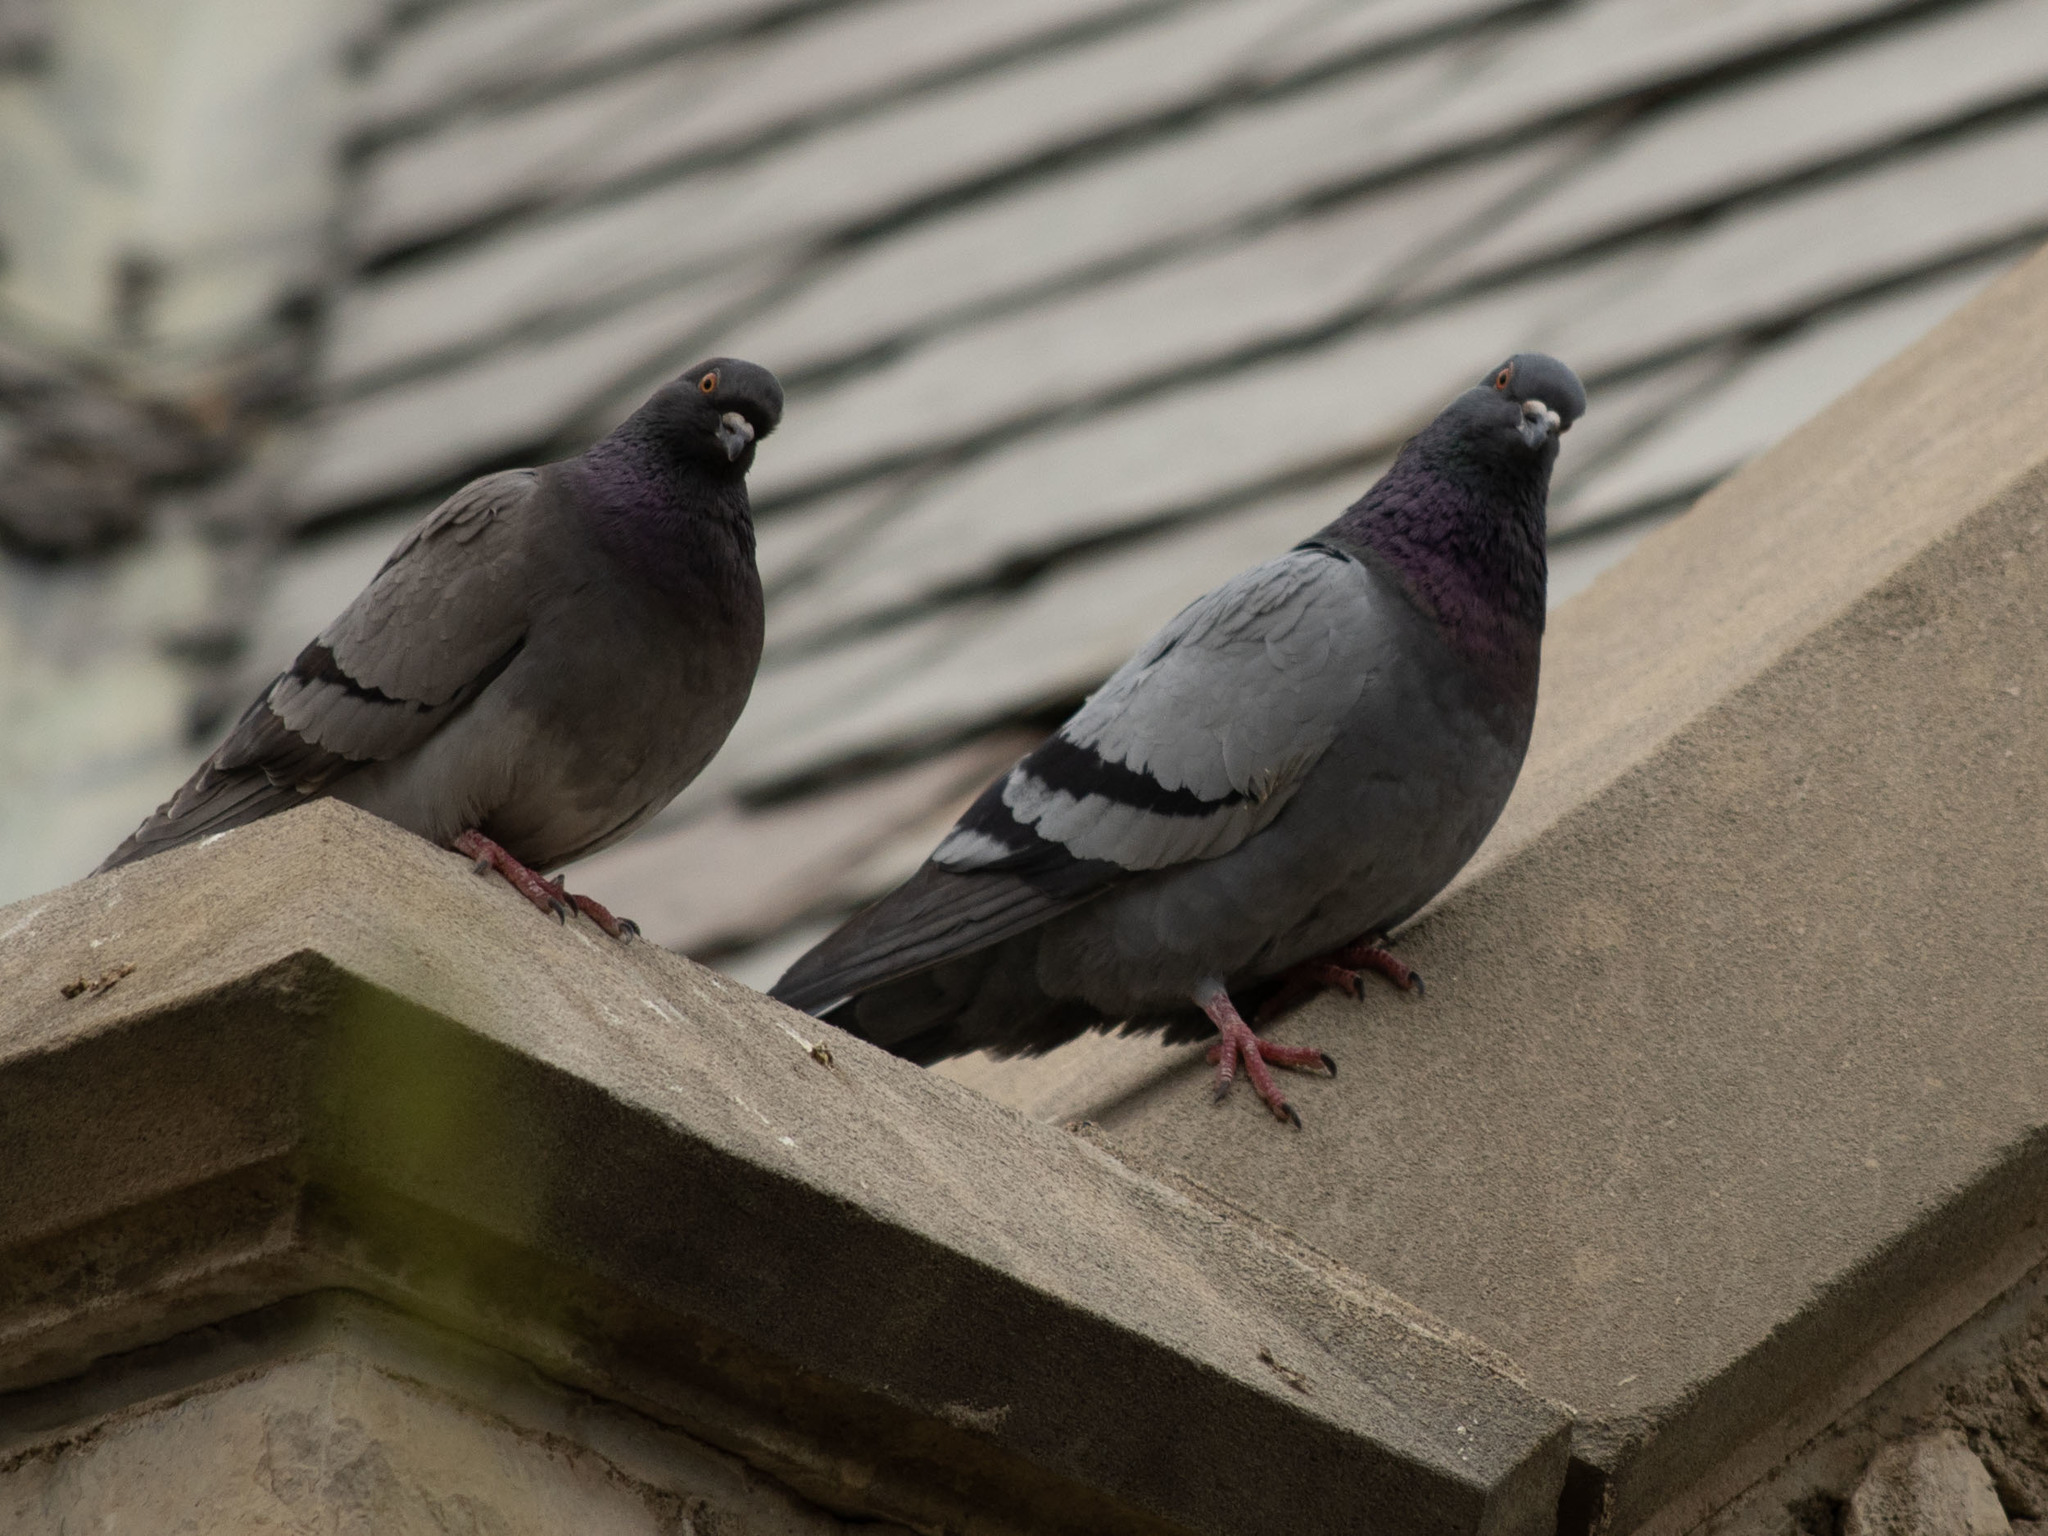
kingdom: Animalia
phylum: Chordata
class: Aves
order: Columbiformes
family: Columbidae
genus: Columba
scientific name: Columba livia
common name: Rock pigeon
